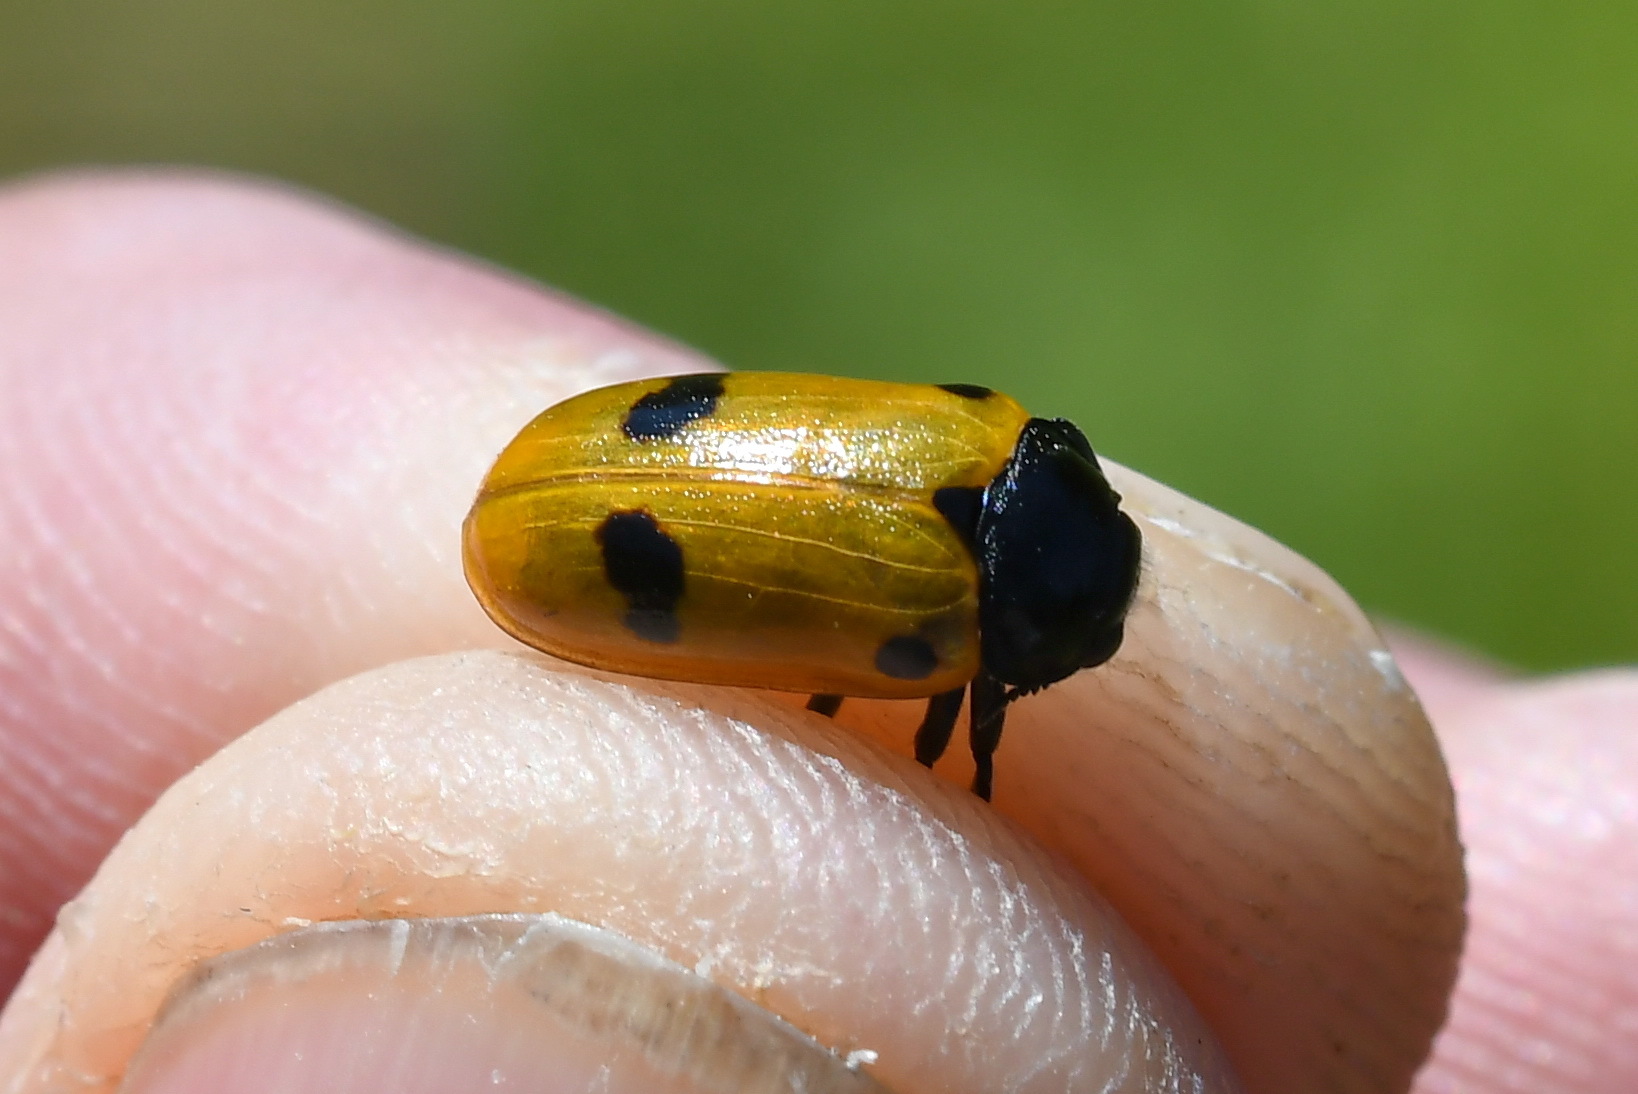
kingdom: Animalia
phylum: Arthropoda
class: Insecta
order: Coleoptera
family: Chrysomelidae
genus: Clytra
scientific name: Clytra quadripunctata
